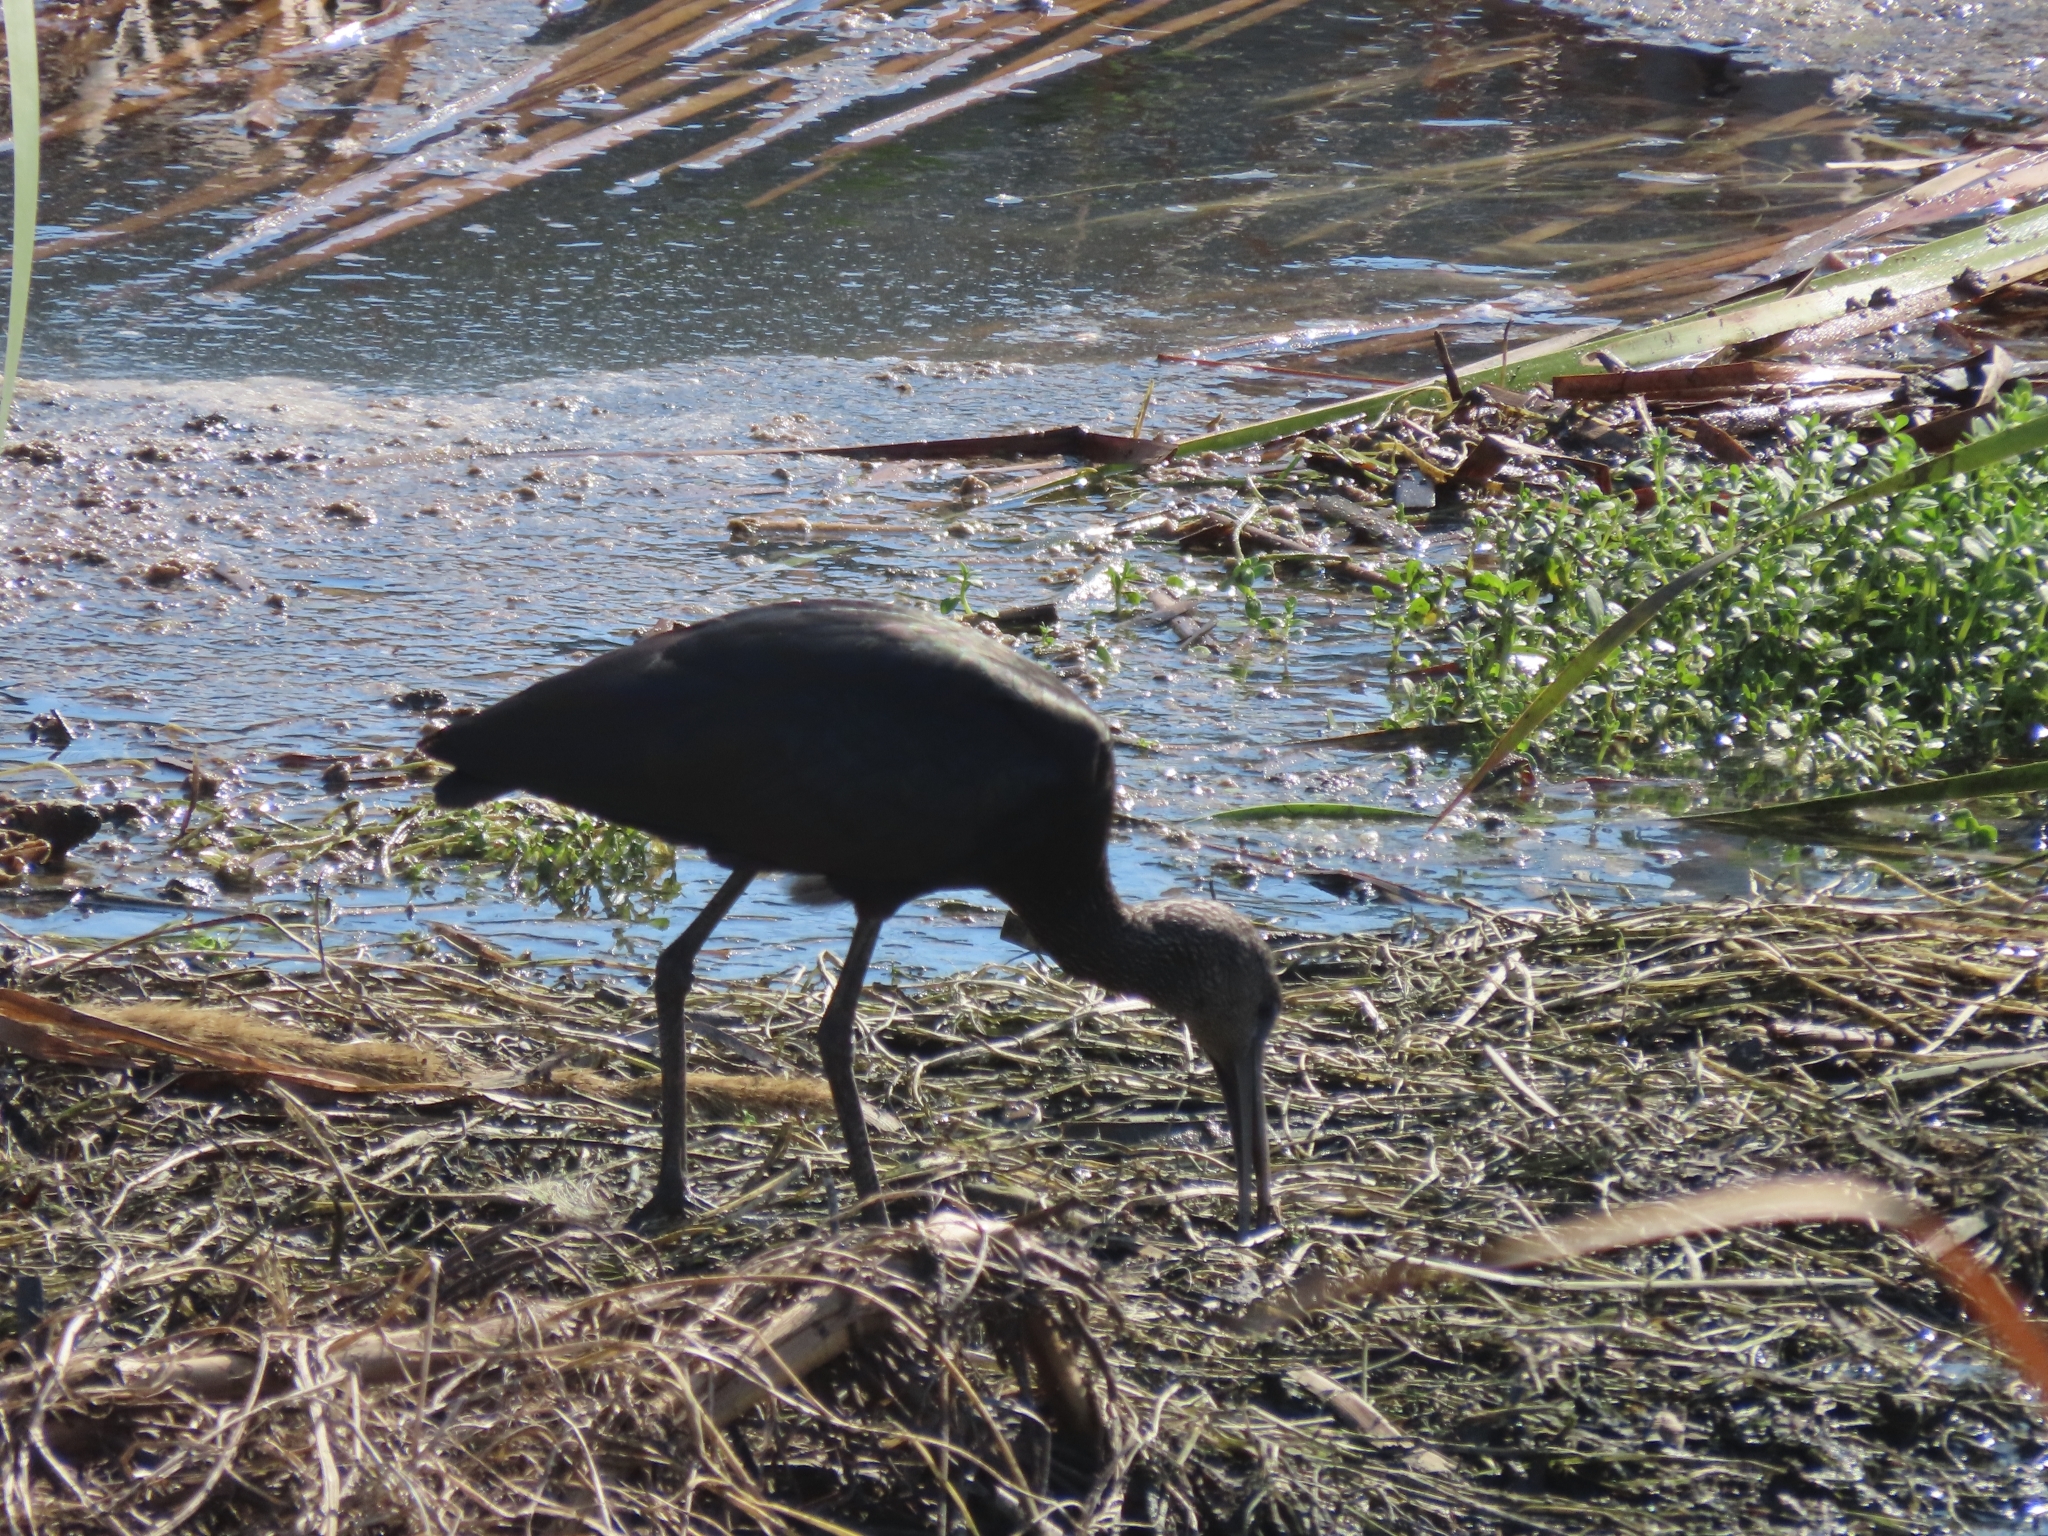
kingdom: Animalia
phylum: Chordata
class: Aves
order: Pelecaniformes
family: Threskiornithidae
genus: Plegadis
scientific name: Plegadis falcinellus
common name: Glossy ibis
